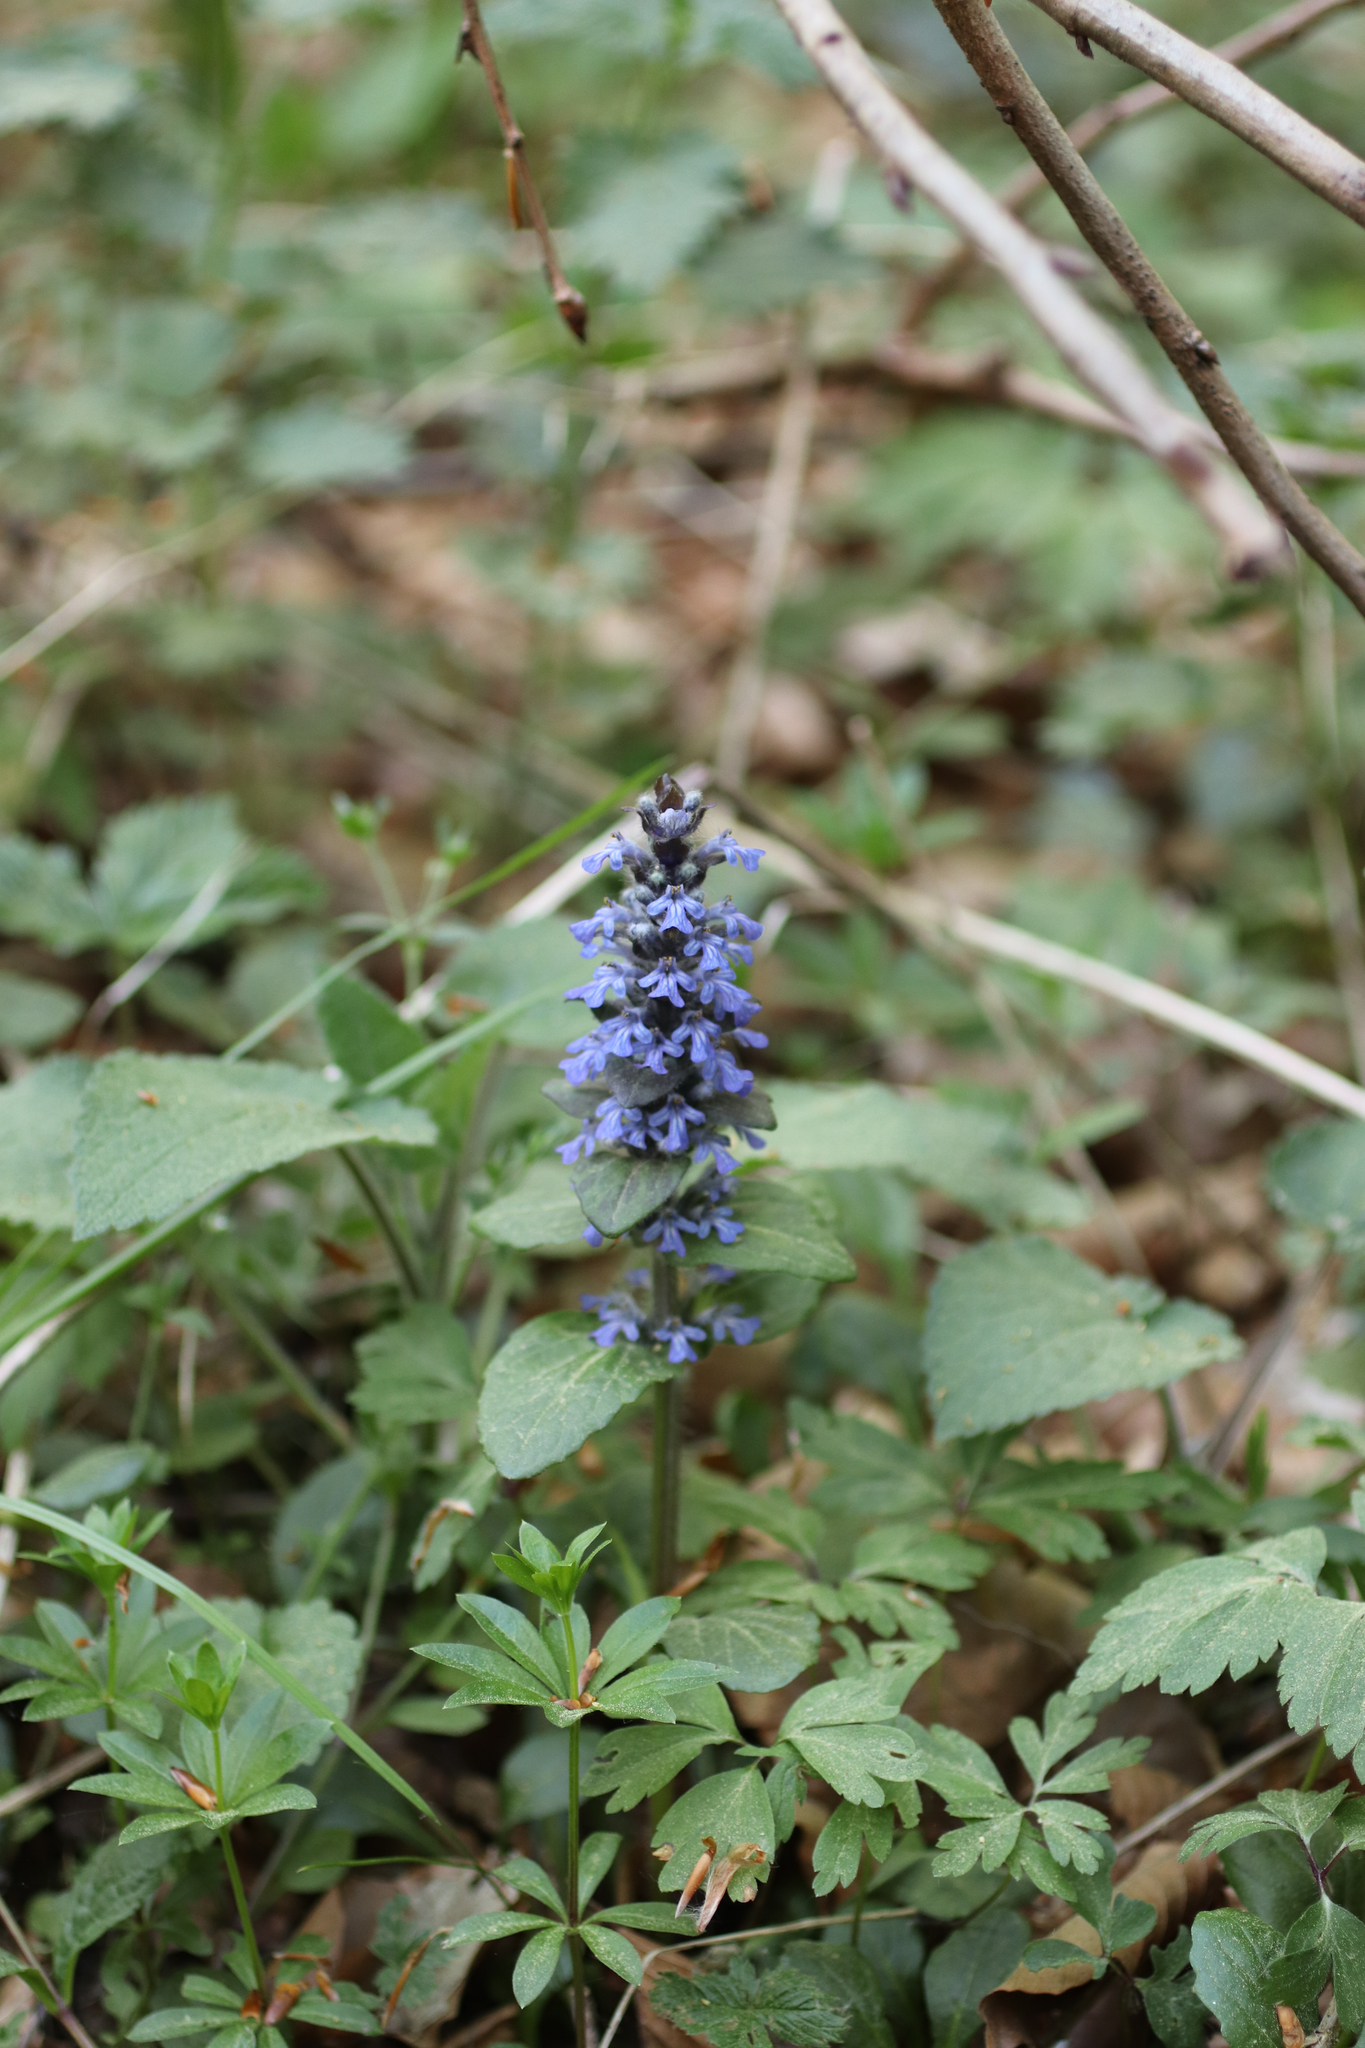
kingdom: Plantae
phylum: Tracheophyta
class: Magnoliopsida
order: Lamiales
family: Lamiaceae
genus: Ajuga
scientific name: Ajuga reptans
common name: Bugle
